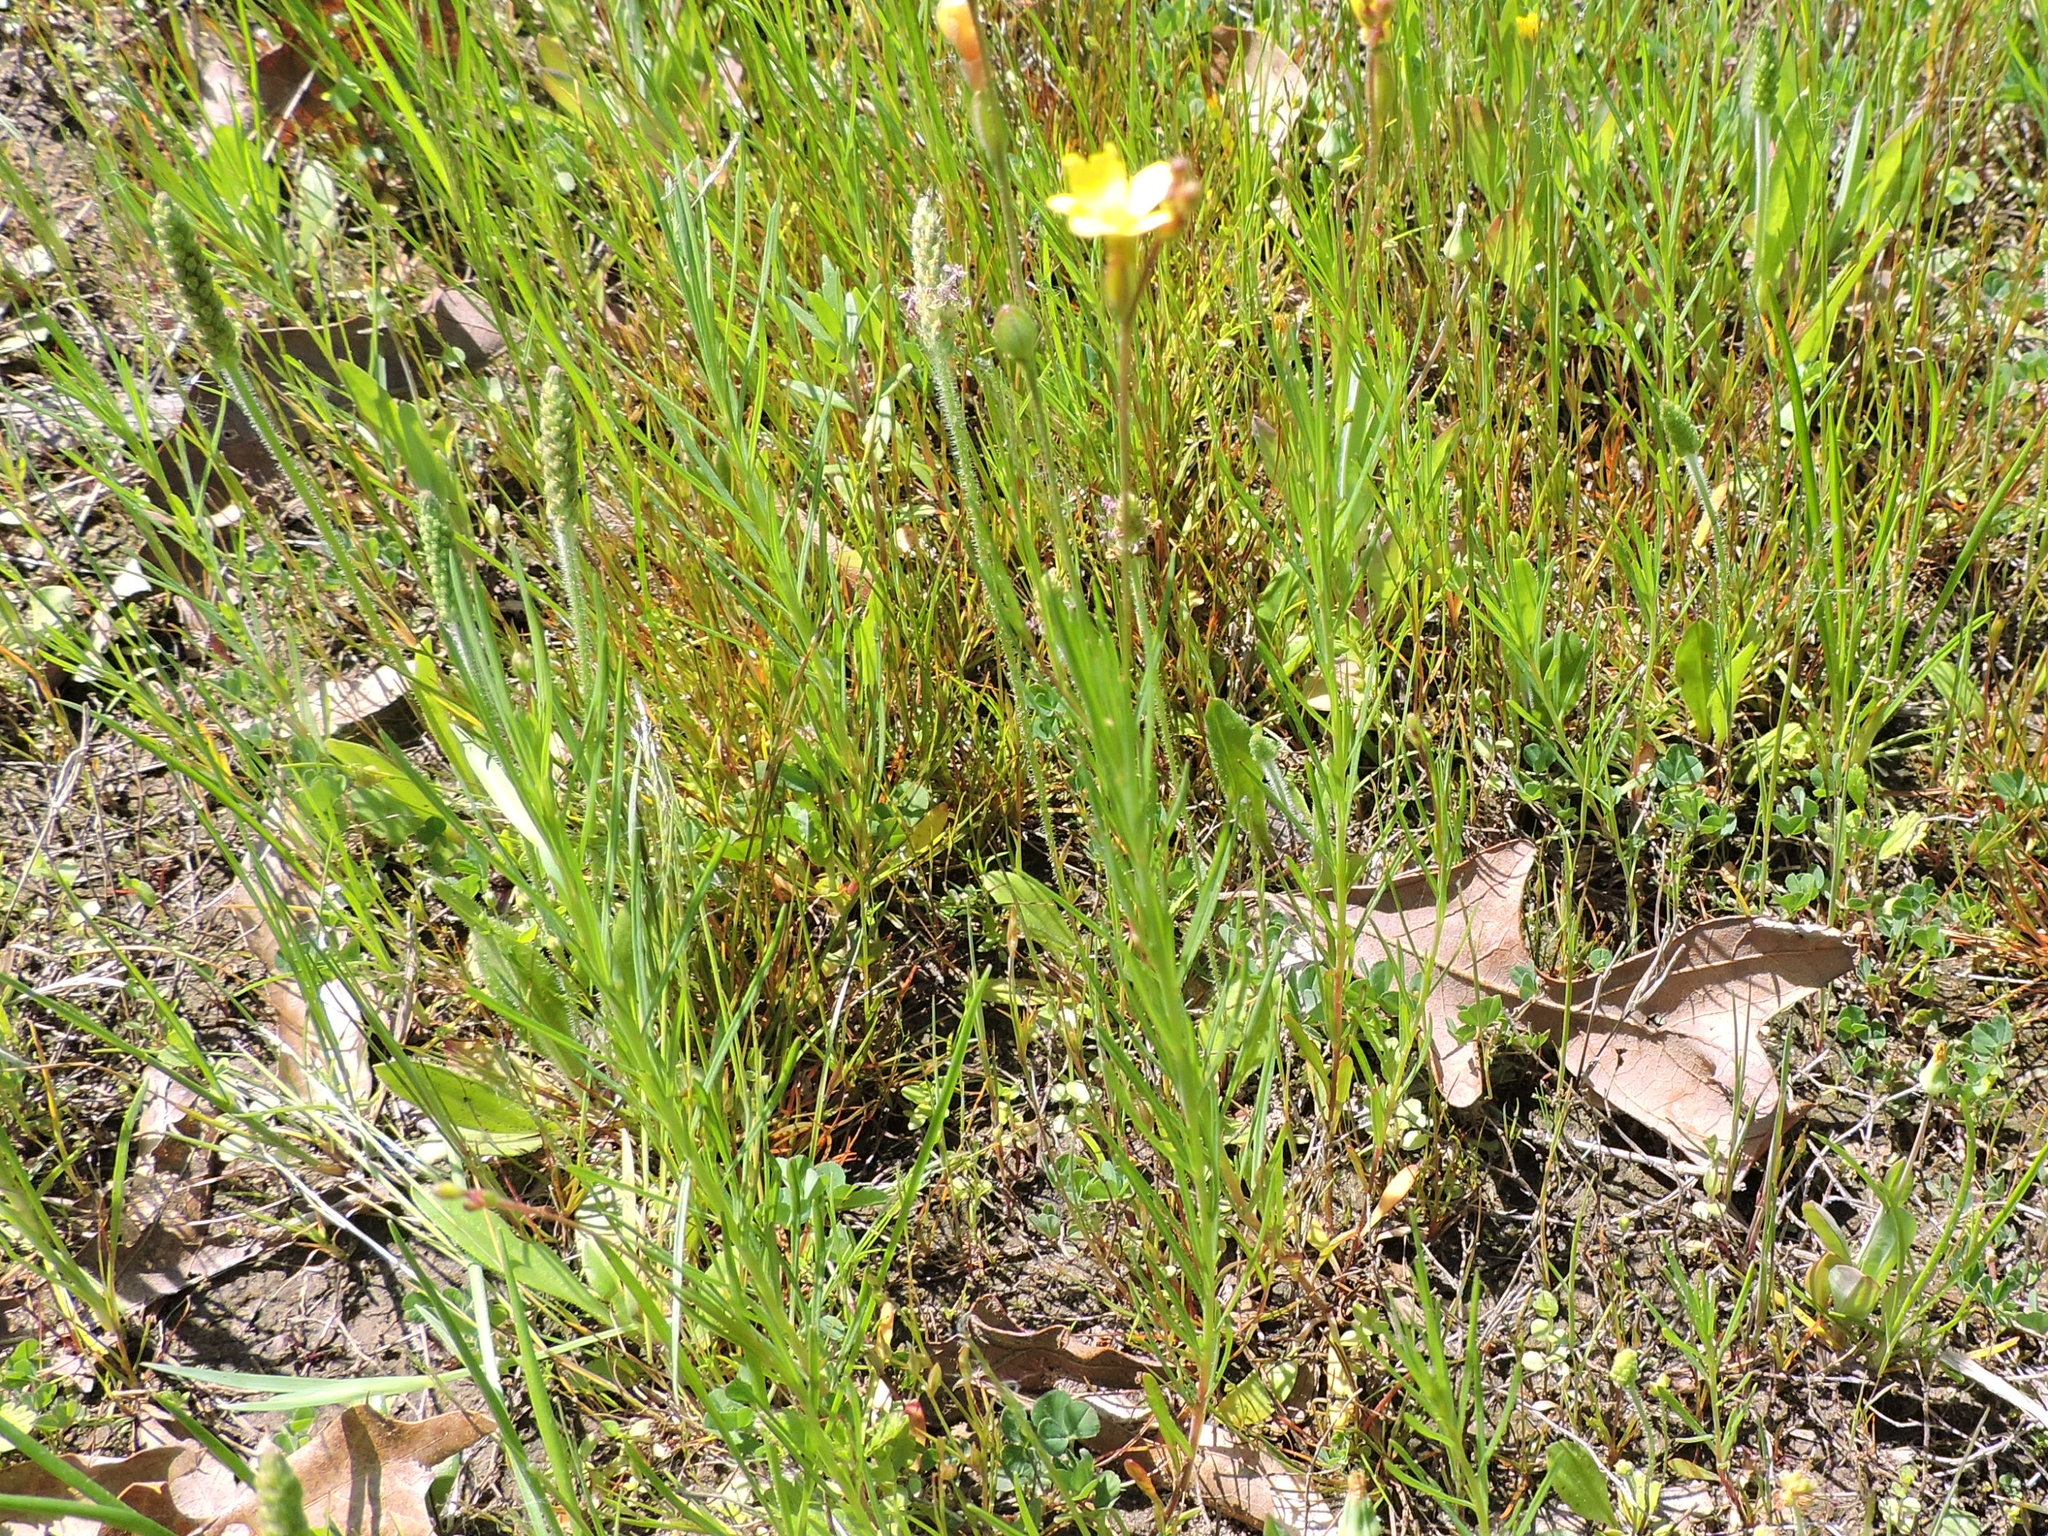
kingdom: Plantae
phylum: Tracheophyta
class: Magnoliopsida
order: Myrtales
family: Onagraceae
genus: Oenothera
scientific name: Oenothera linifolia
